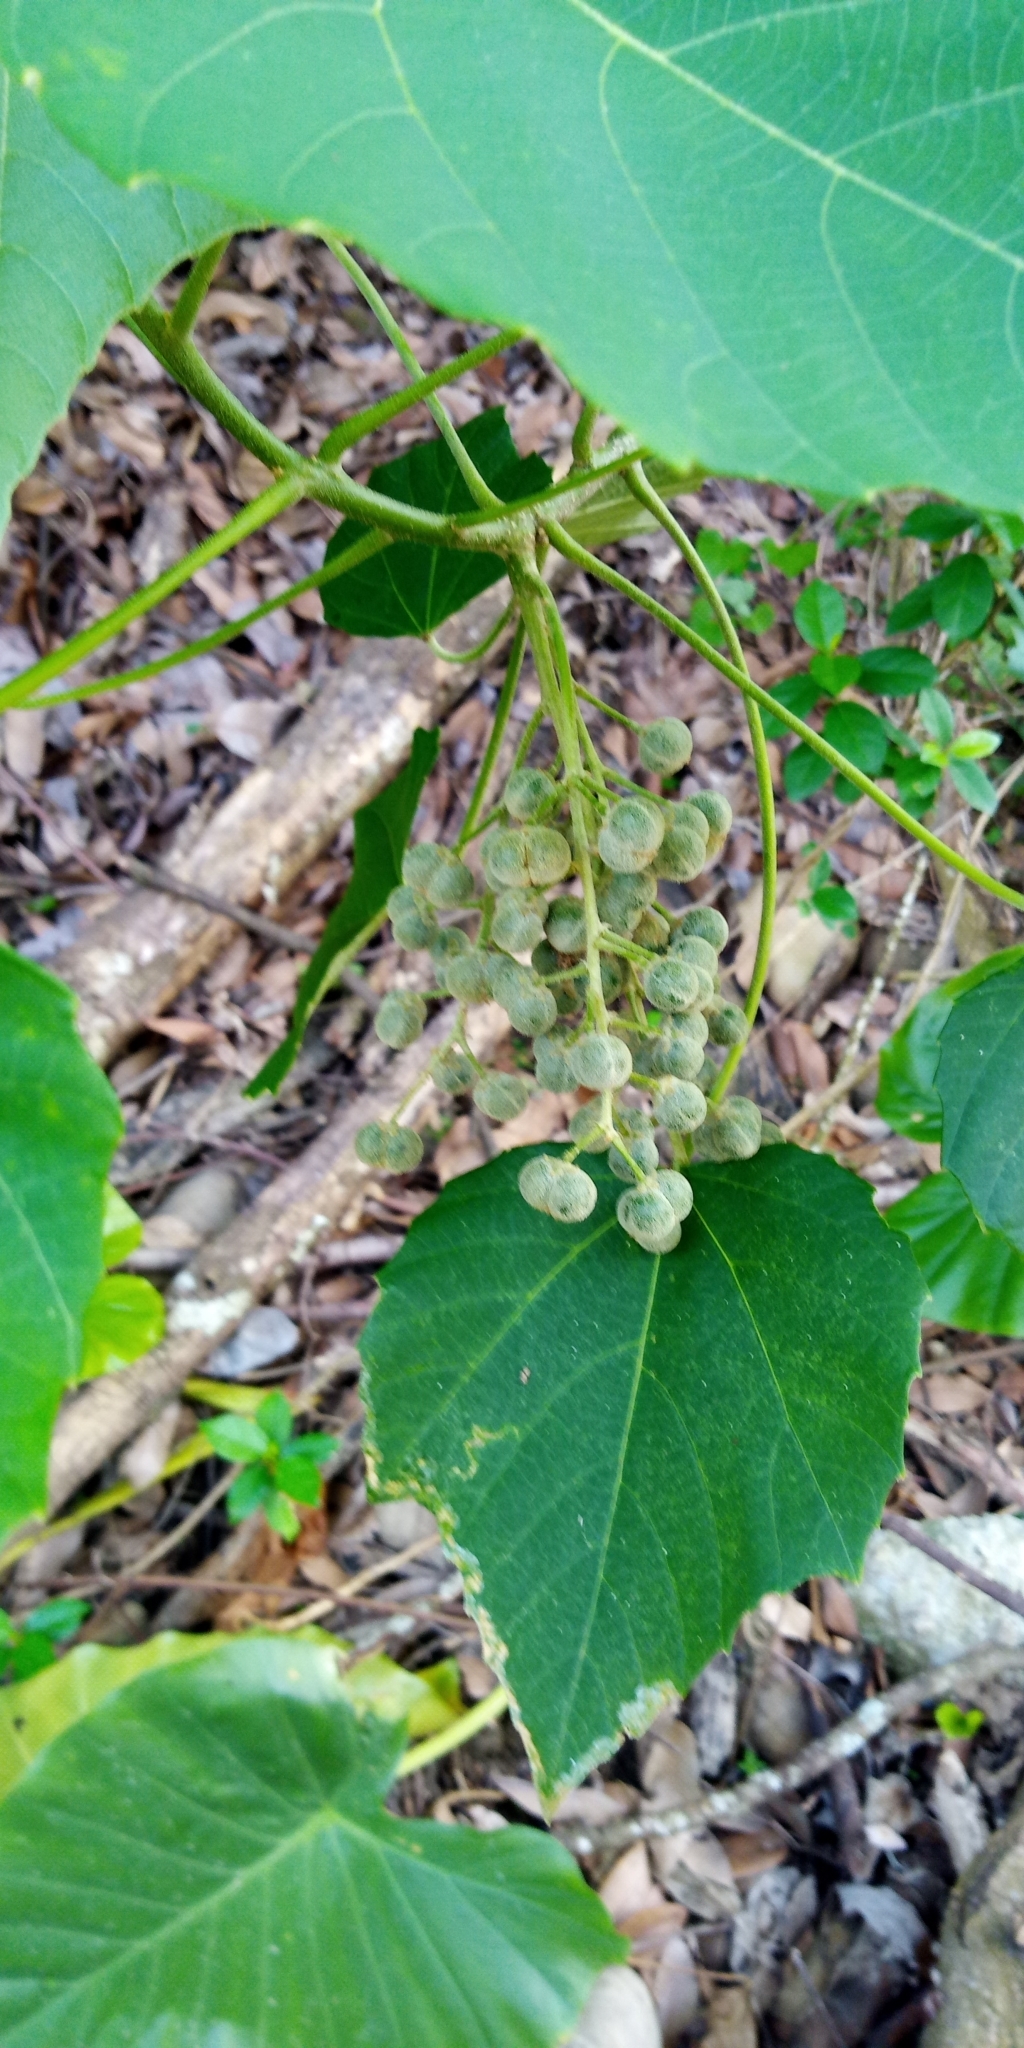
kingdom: Plantae
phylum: Tracheophyta
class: Magnoliopsida
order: Malpighiales
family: Euphorbiaceae
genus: Melanolepis
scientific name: Melanolepis multiglandulosa
